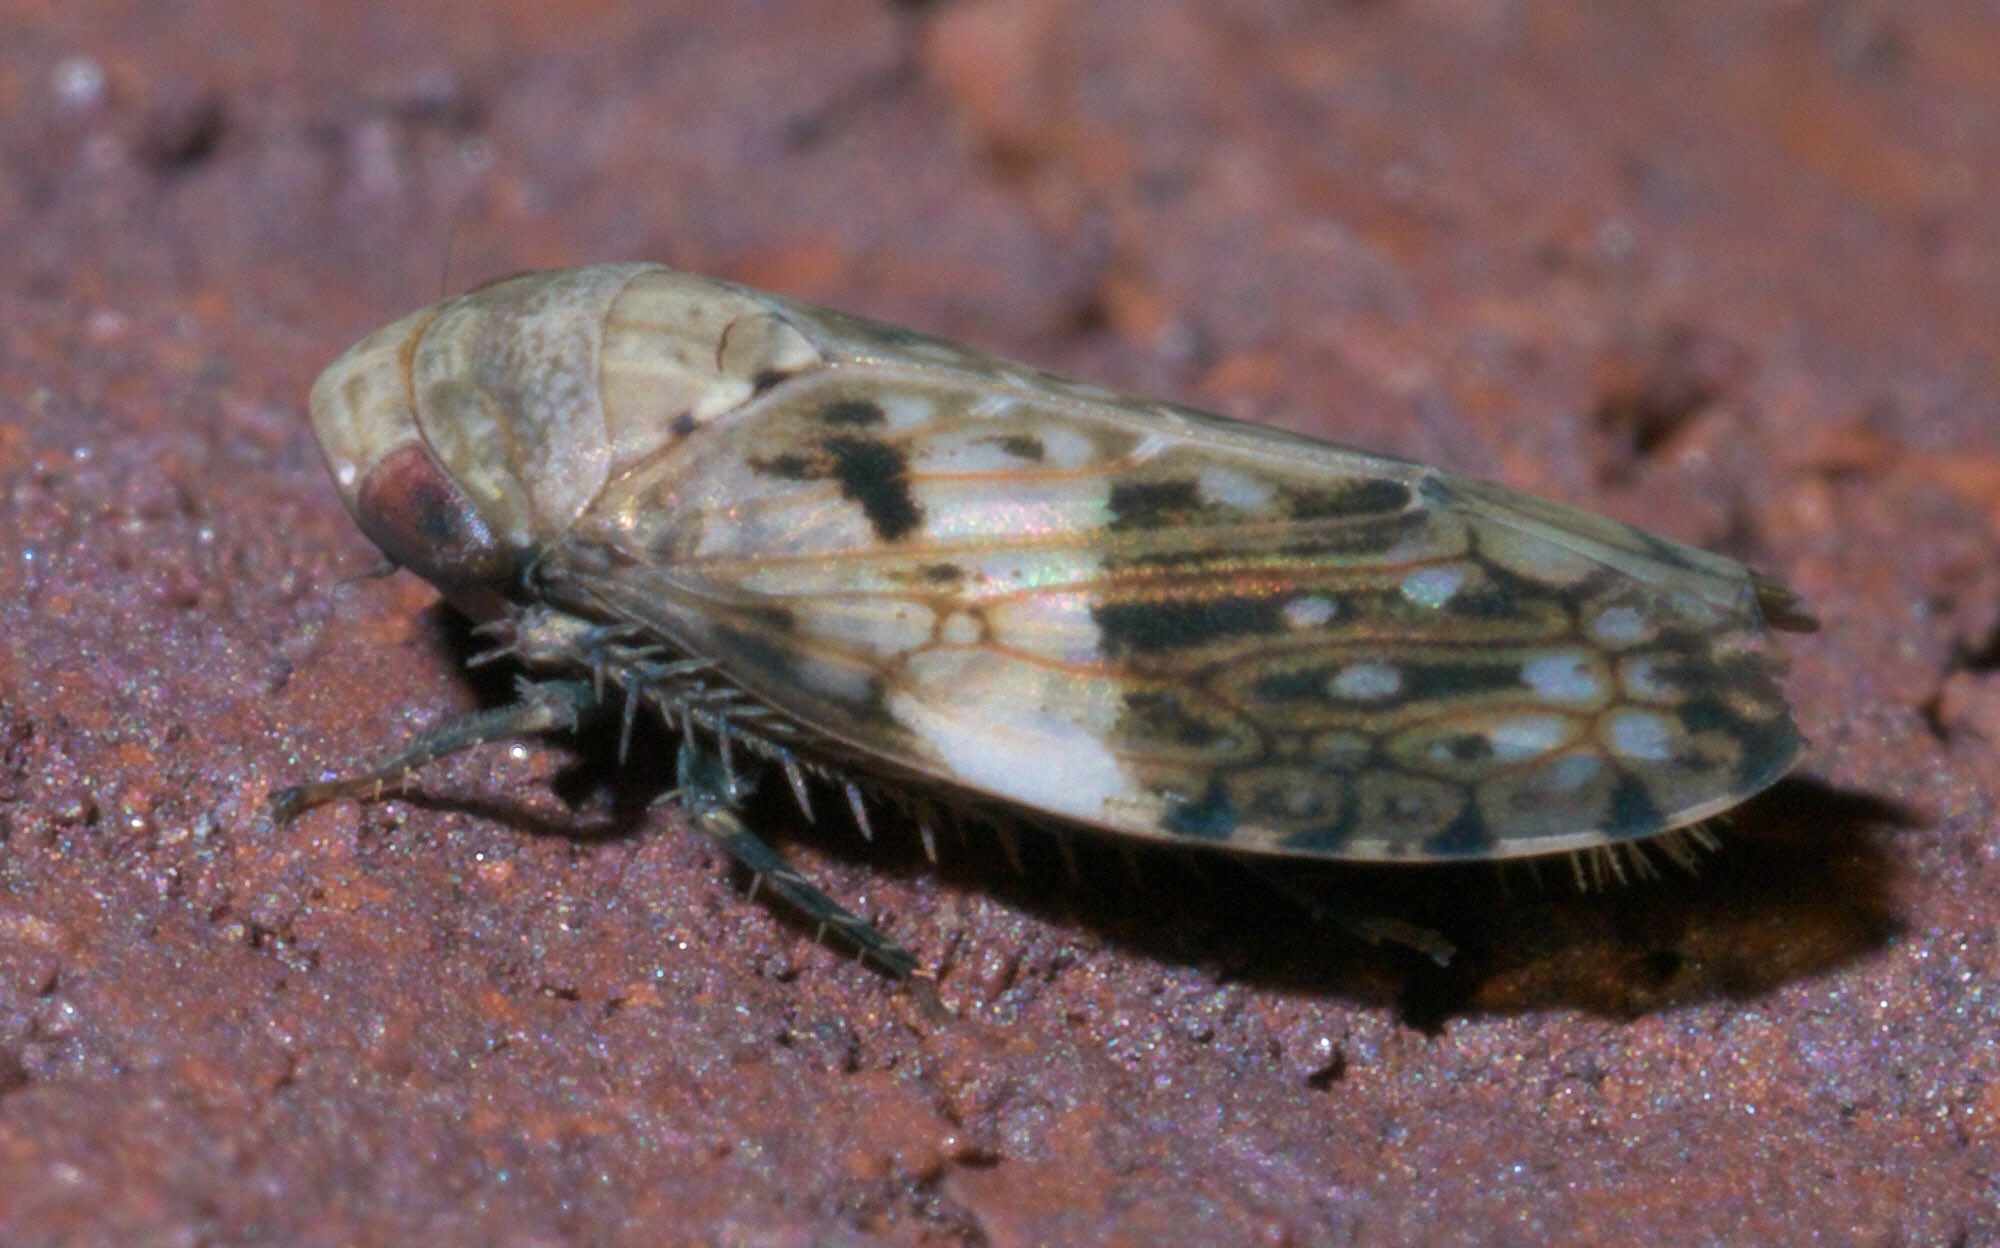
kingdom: Animalia
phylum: Arthropoda
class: Insecta
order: Hemiptera
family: Cicadellidae
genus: Menosoma
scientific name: Menosoma cinctum
